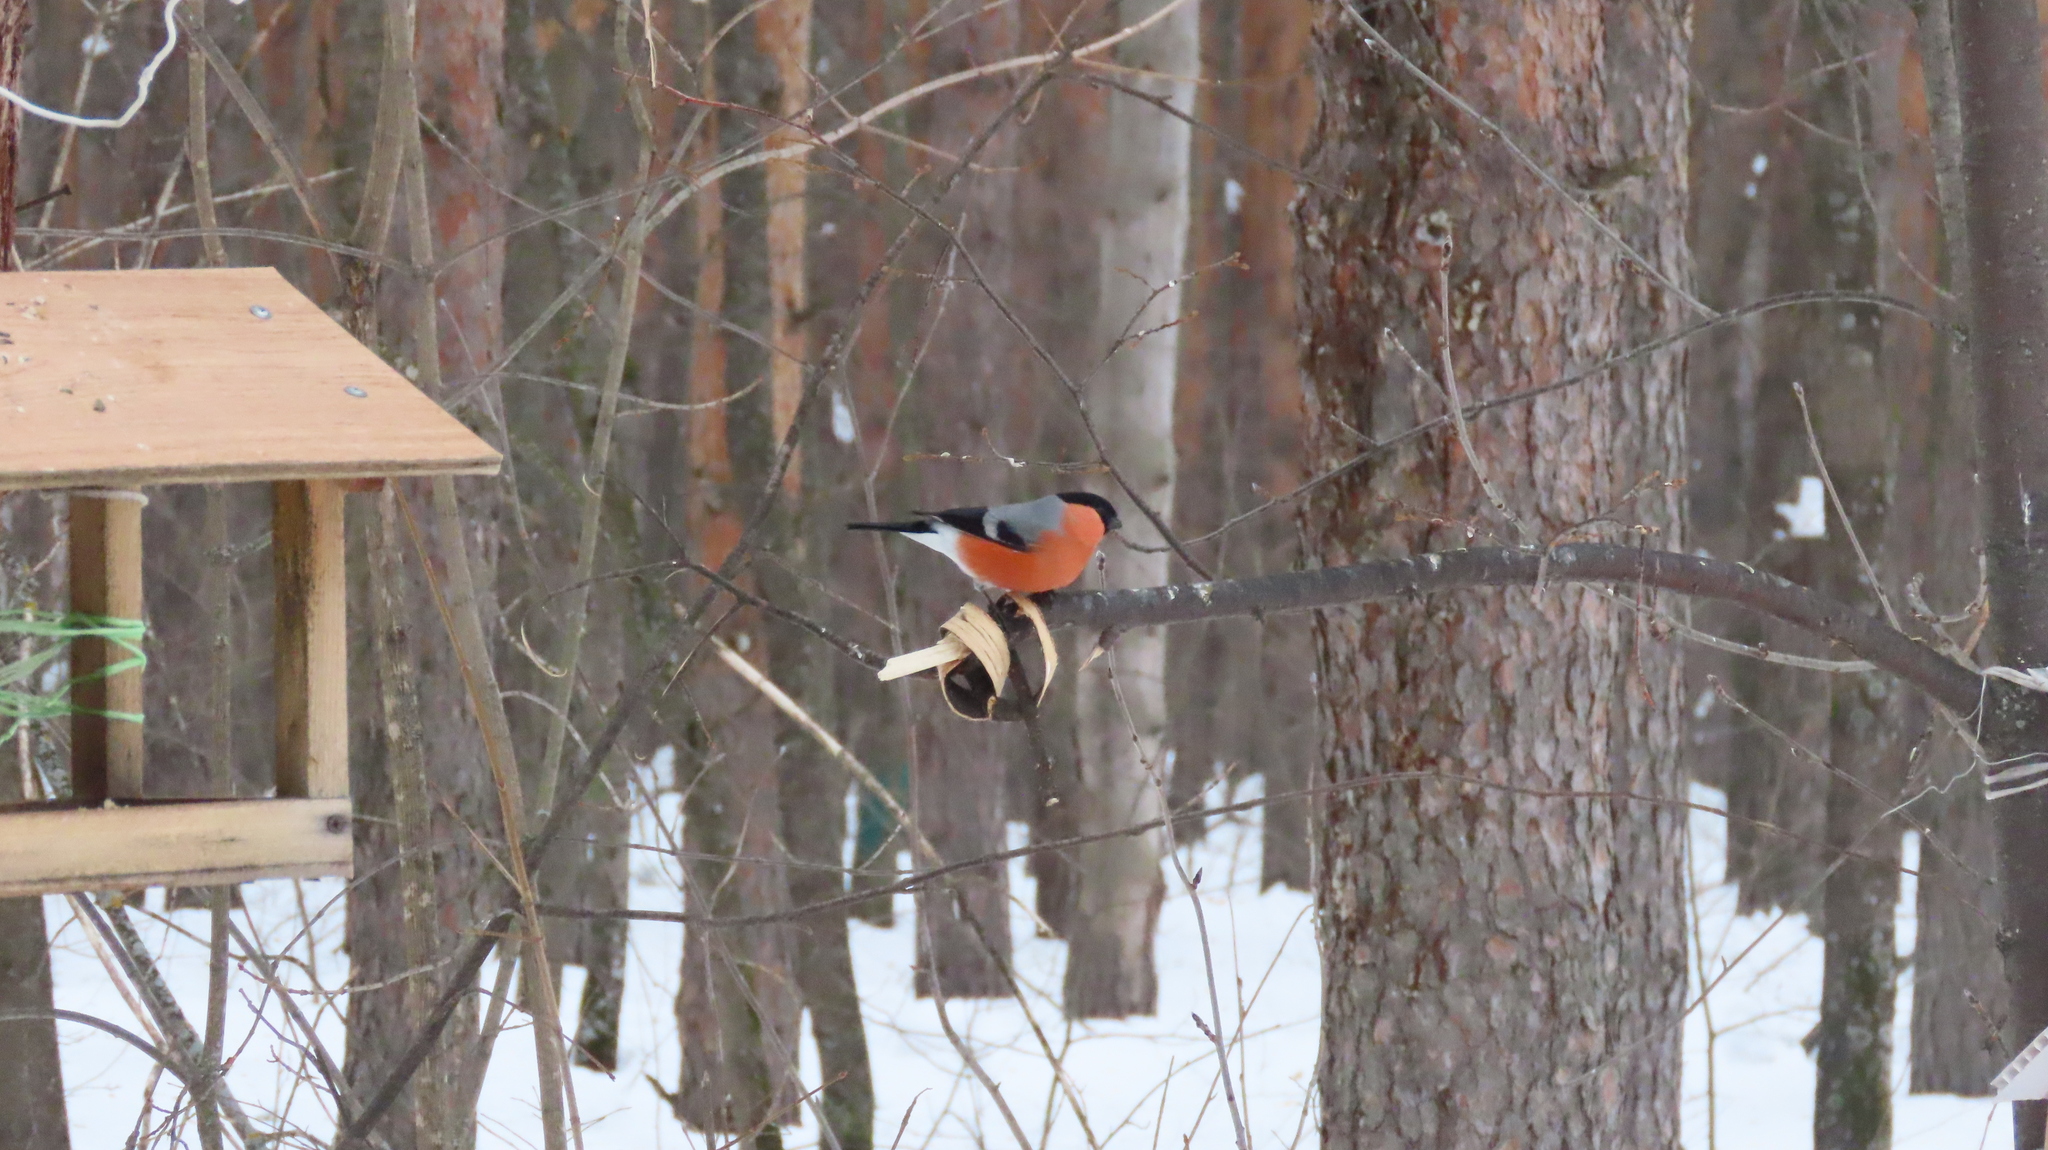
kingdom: Animalia
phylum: Chordata
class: Aves
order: Passeriformes
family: Fringillidae
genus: Pyrrhula
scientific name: Pyrrhula pyrrhula
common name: Eurasian bullfinch
